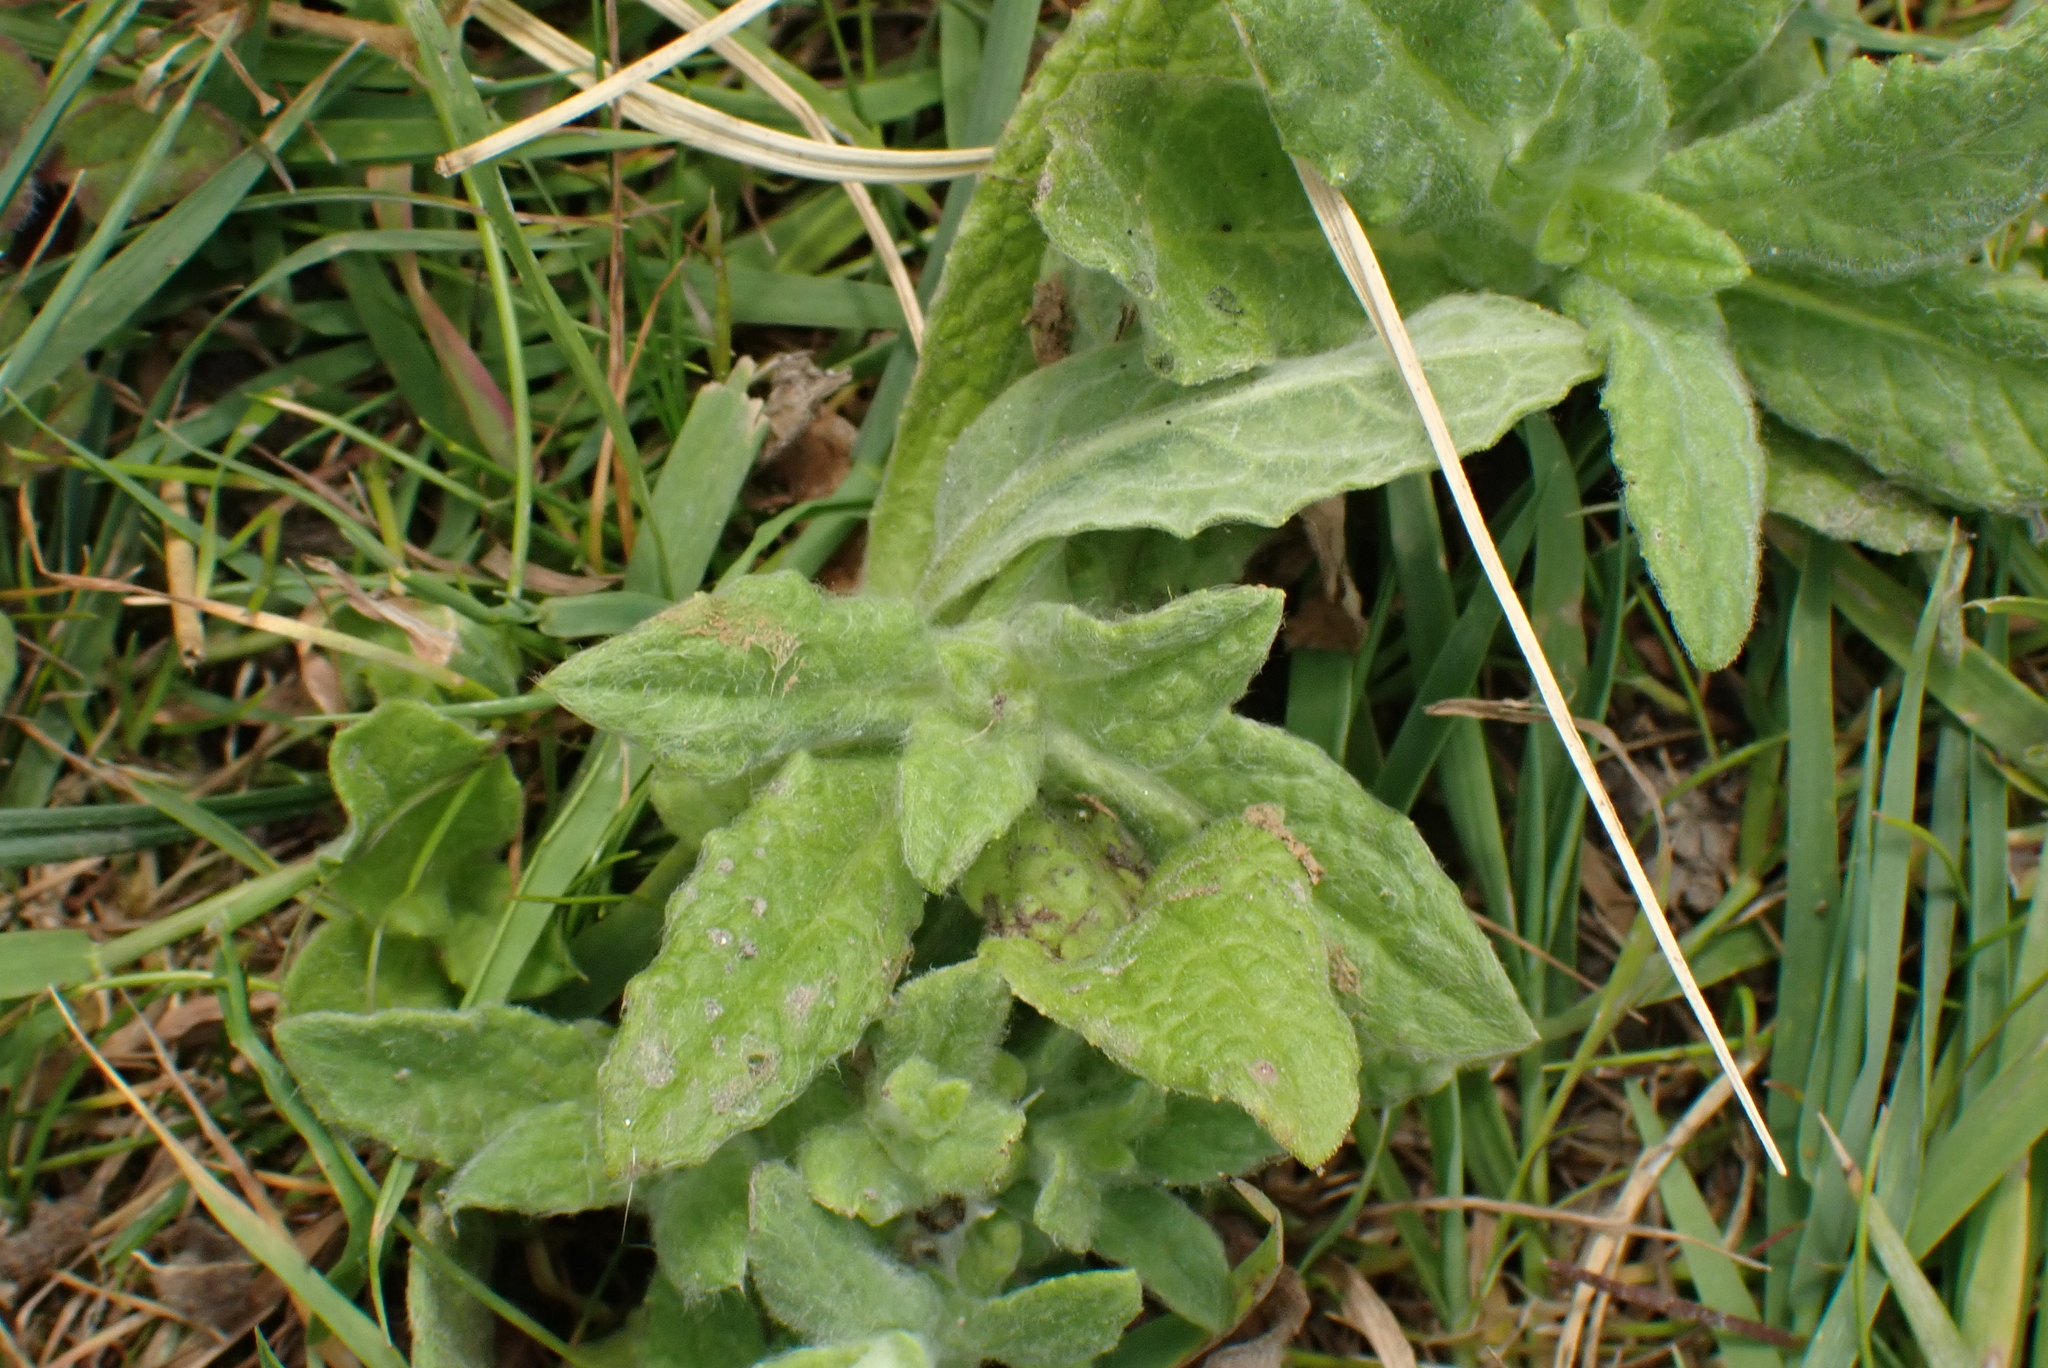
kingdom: Plantae
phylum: Tracheophyta
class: Magnoliopsida
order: Asterales
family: Asteraceae
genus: Pulicaria
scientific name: Pulicaria dysenterica
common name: Common fleabane
